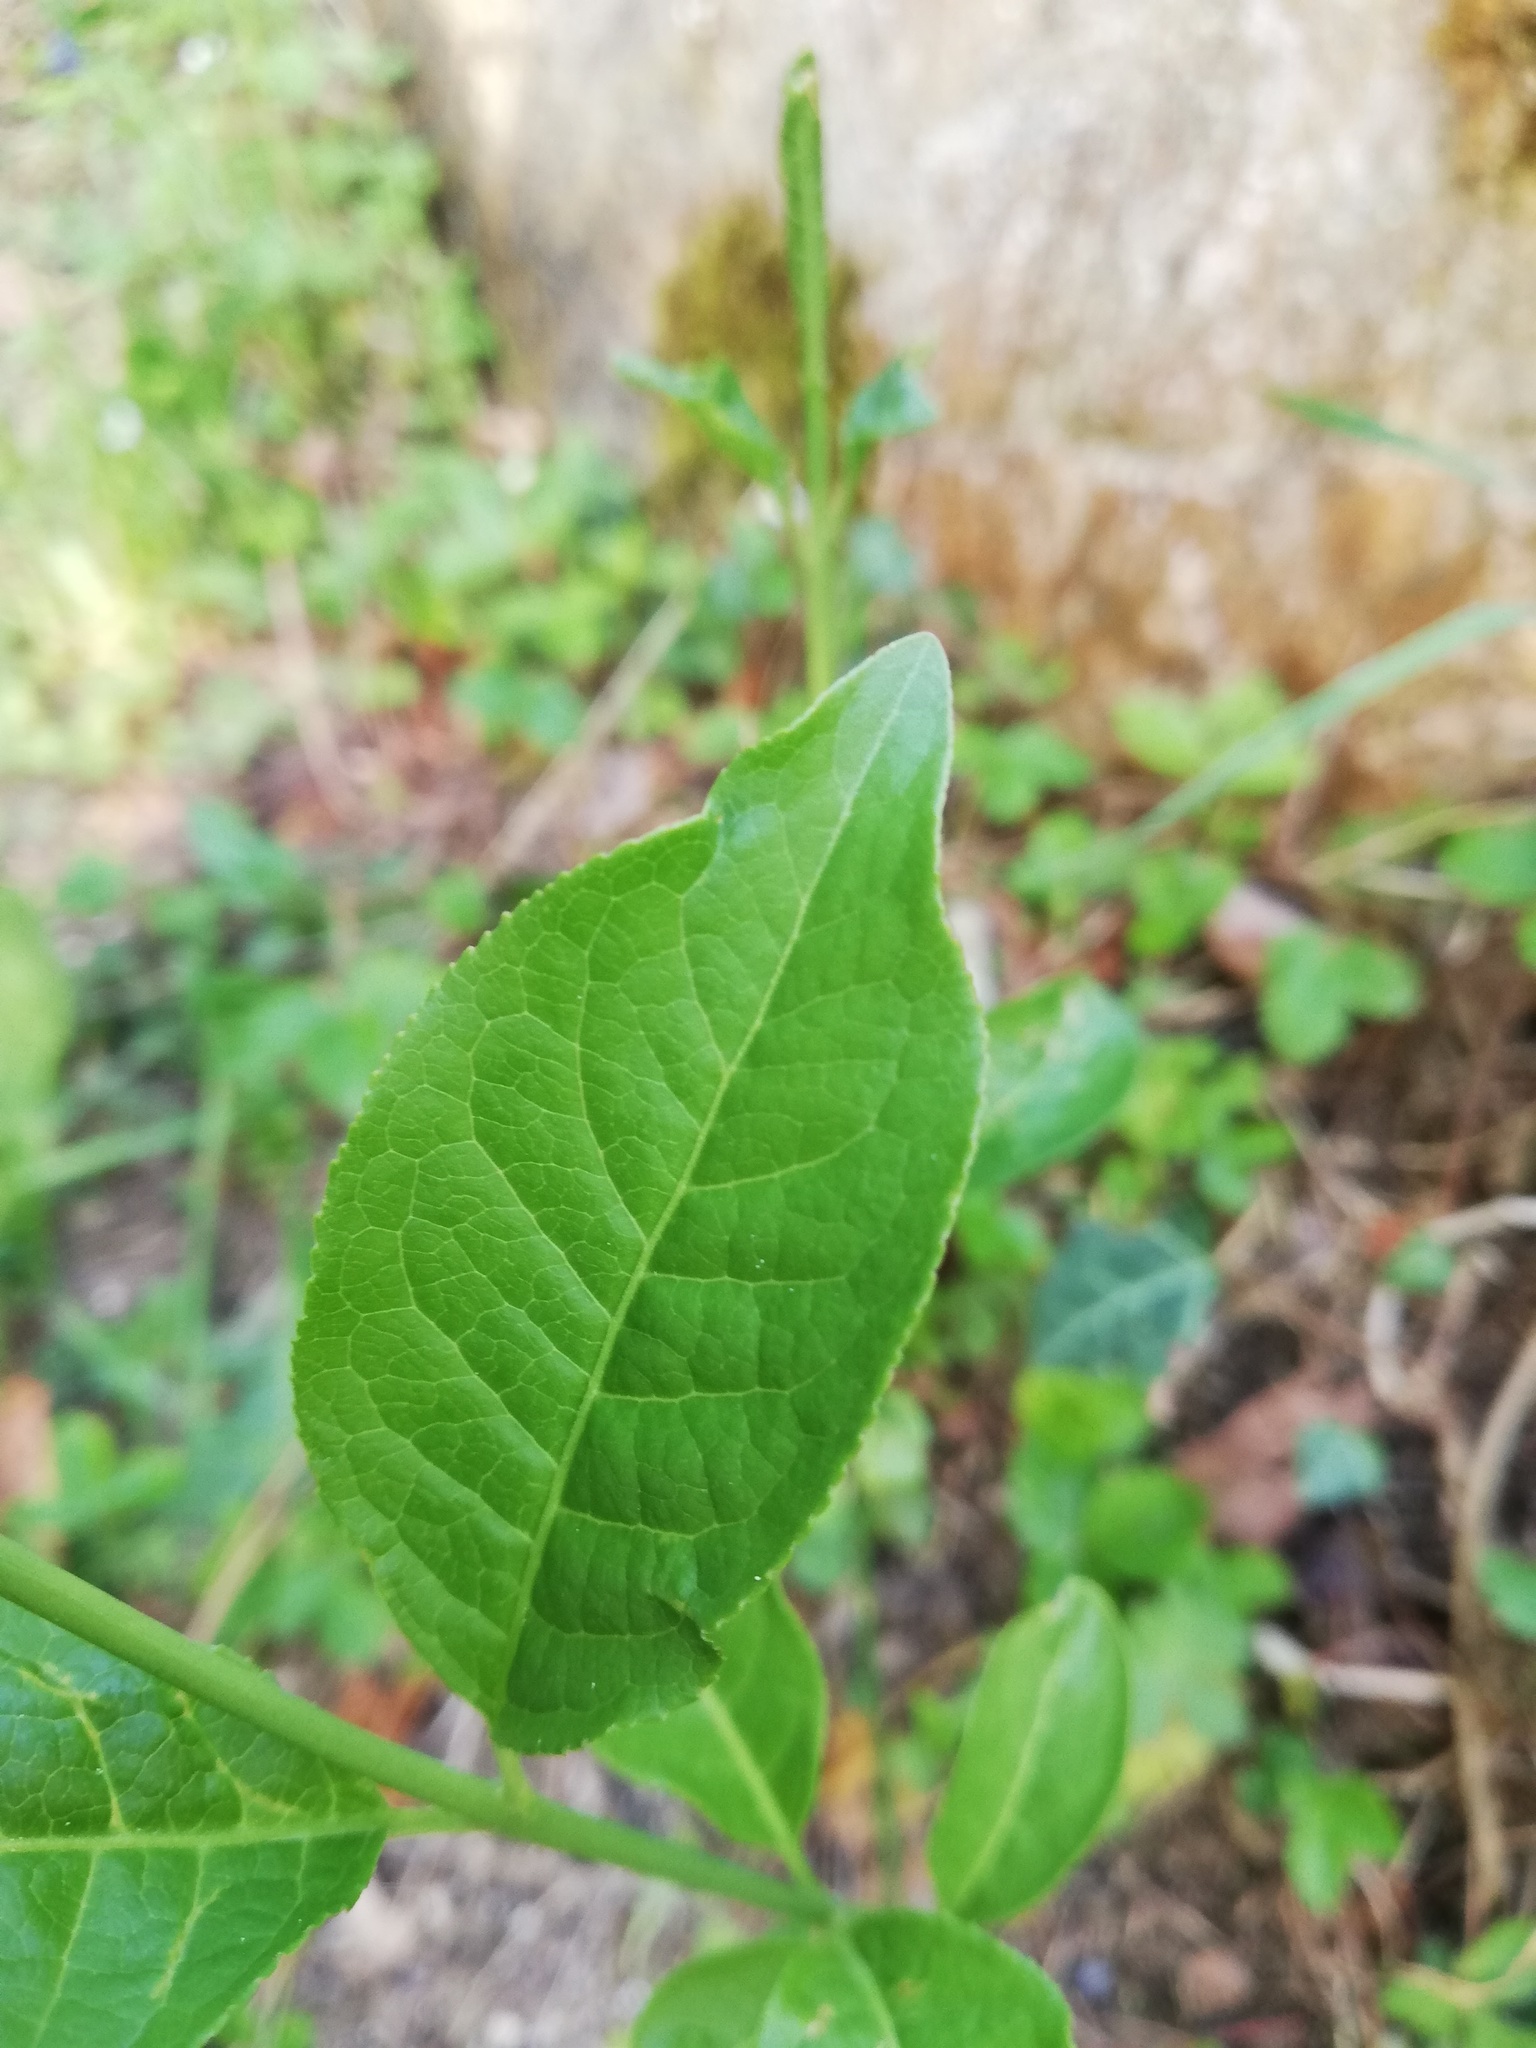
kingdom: Plantae
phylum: Tracheophyta
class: Magnoliopsida
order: Celastrales
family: Celastraceae
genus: Euonymus
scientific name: Euonymus europaeus
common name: Spindle
